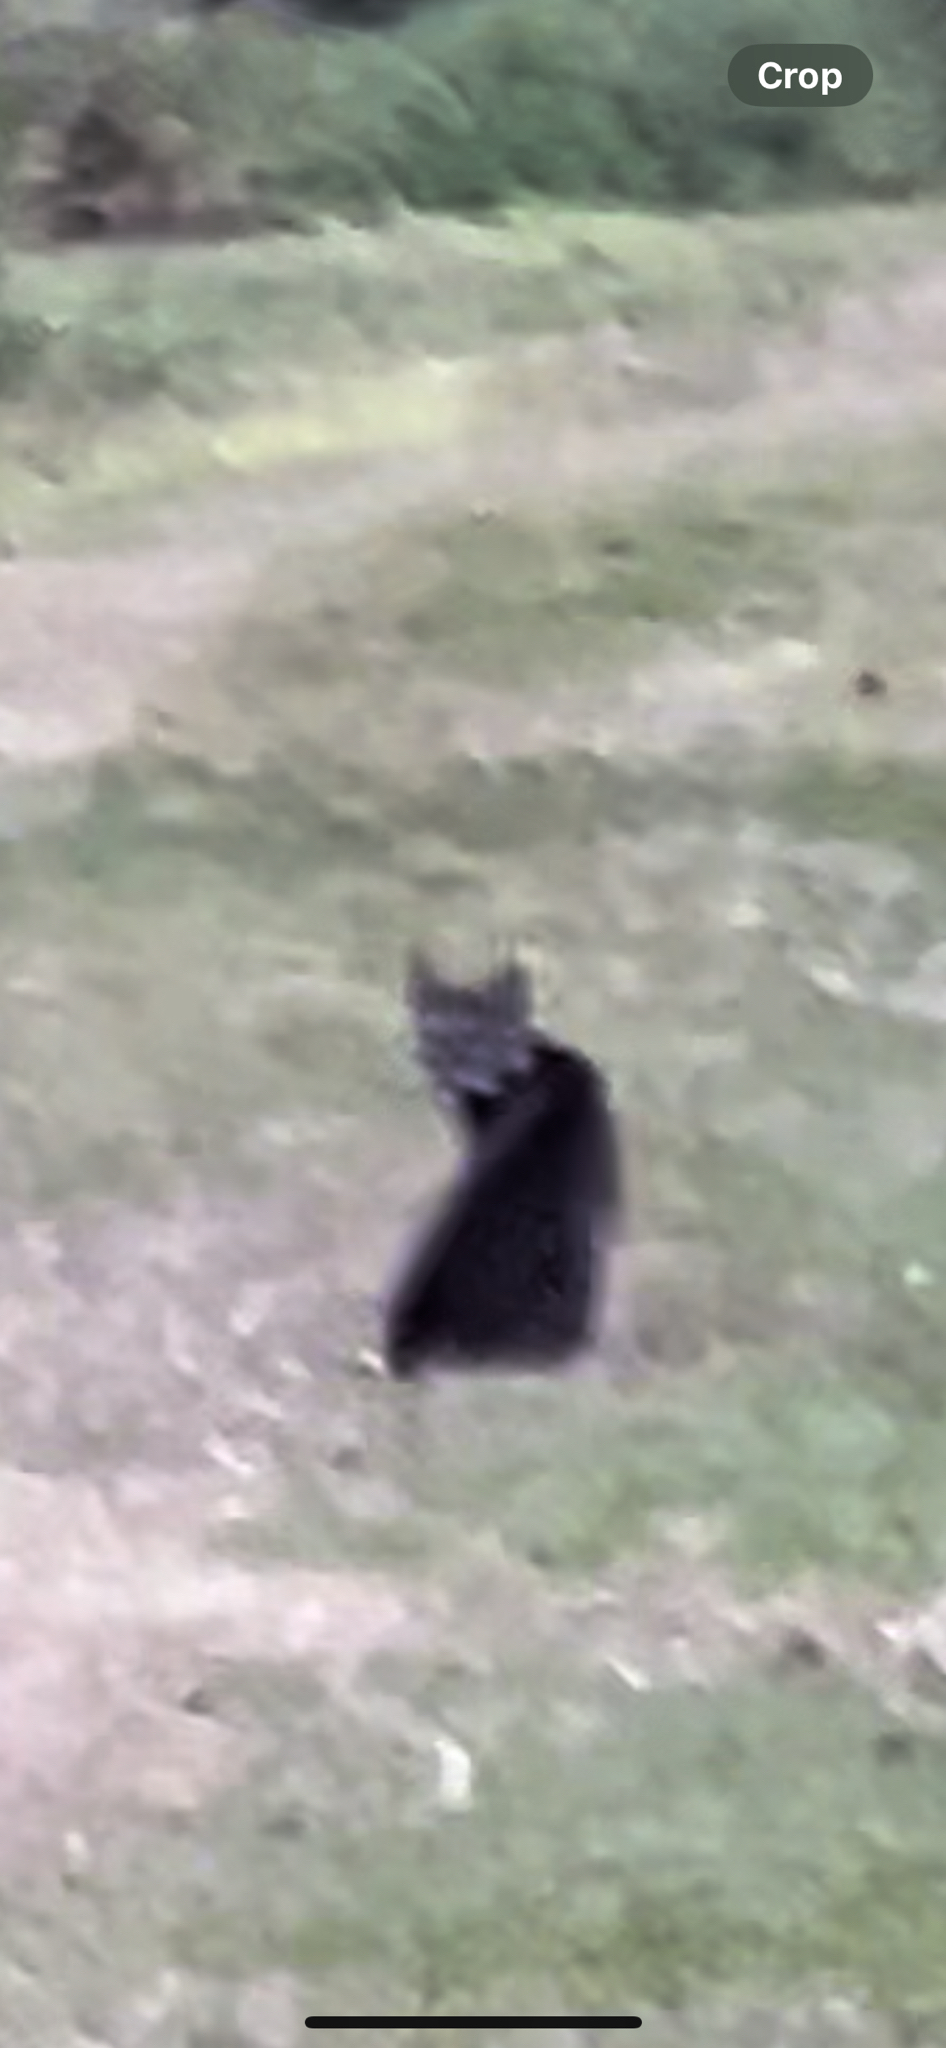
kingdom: Animalia
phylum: Chordata
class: Mammalia
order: Carnivora
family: Felidae
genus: Lynx
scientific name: Lynx rufus
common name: Bobcat
